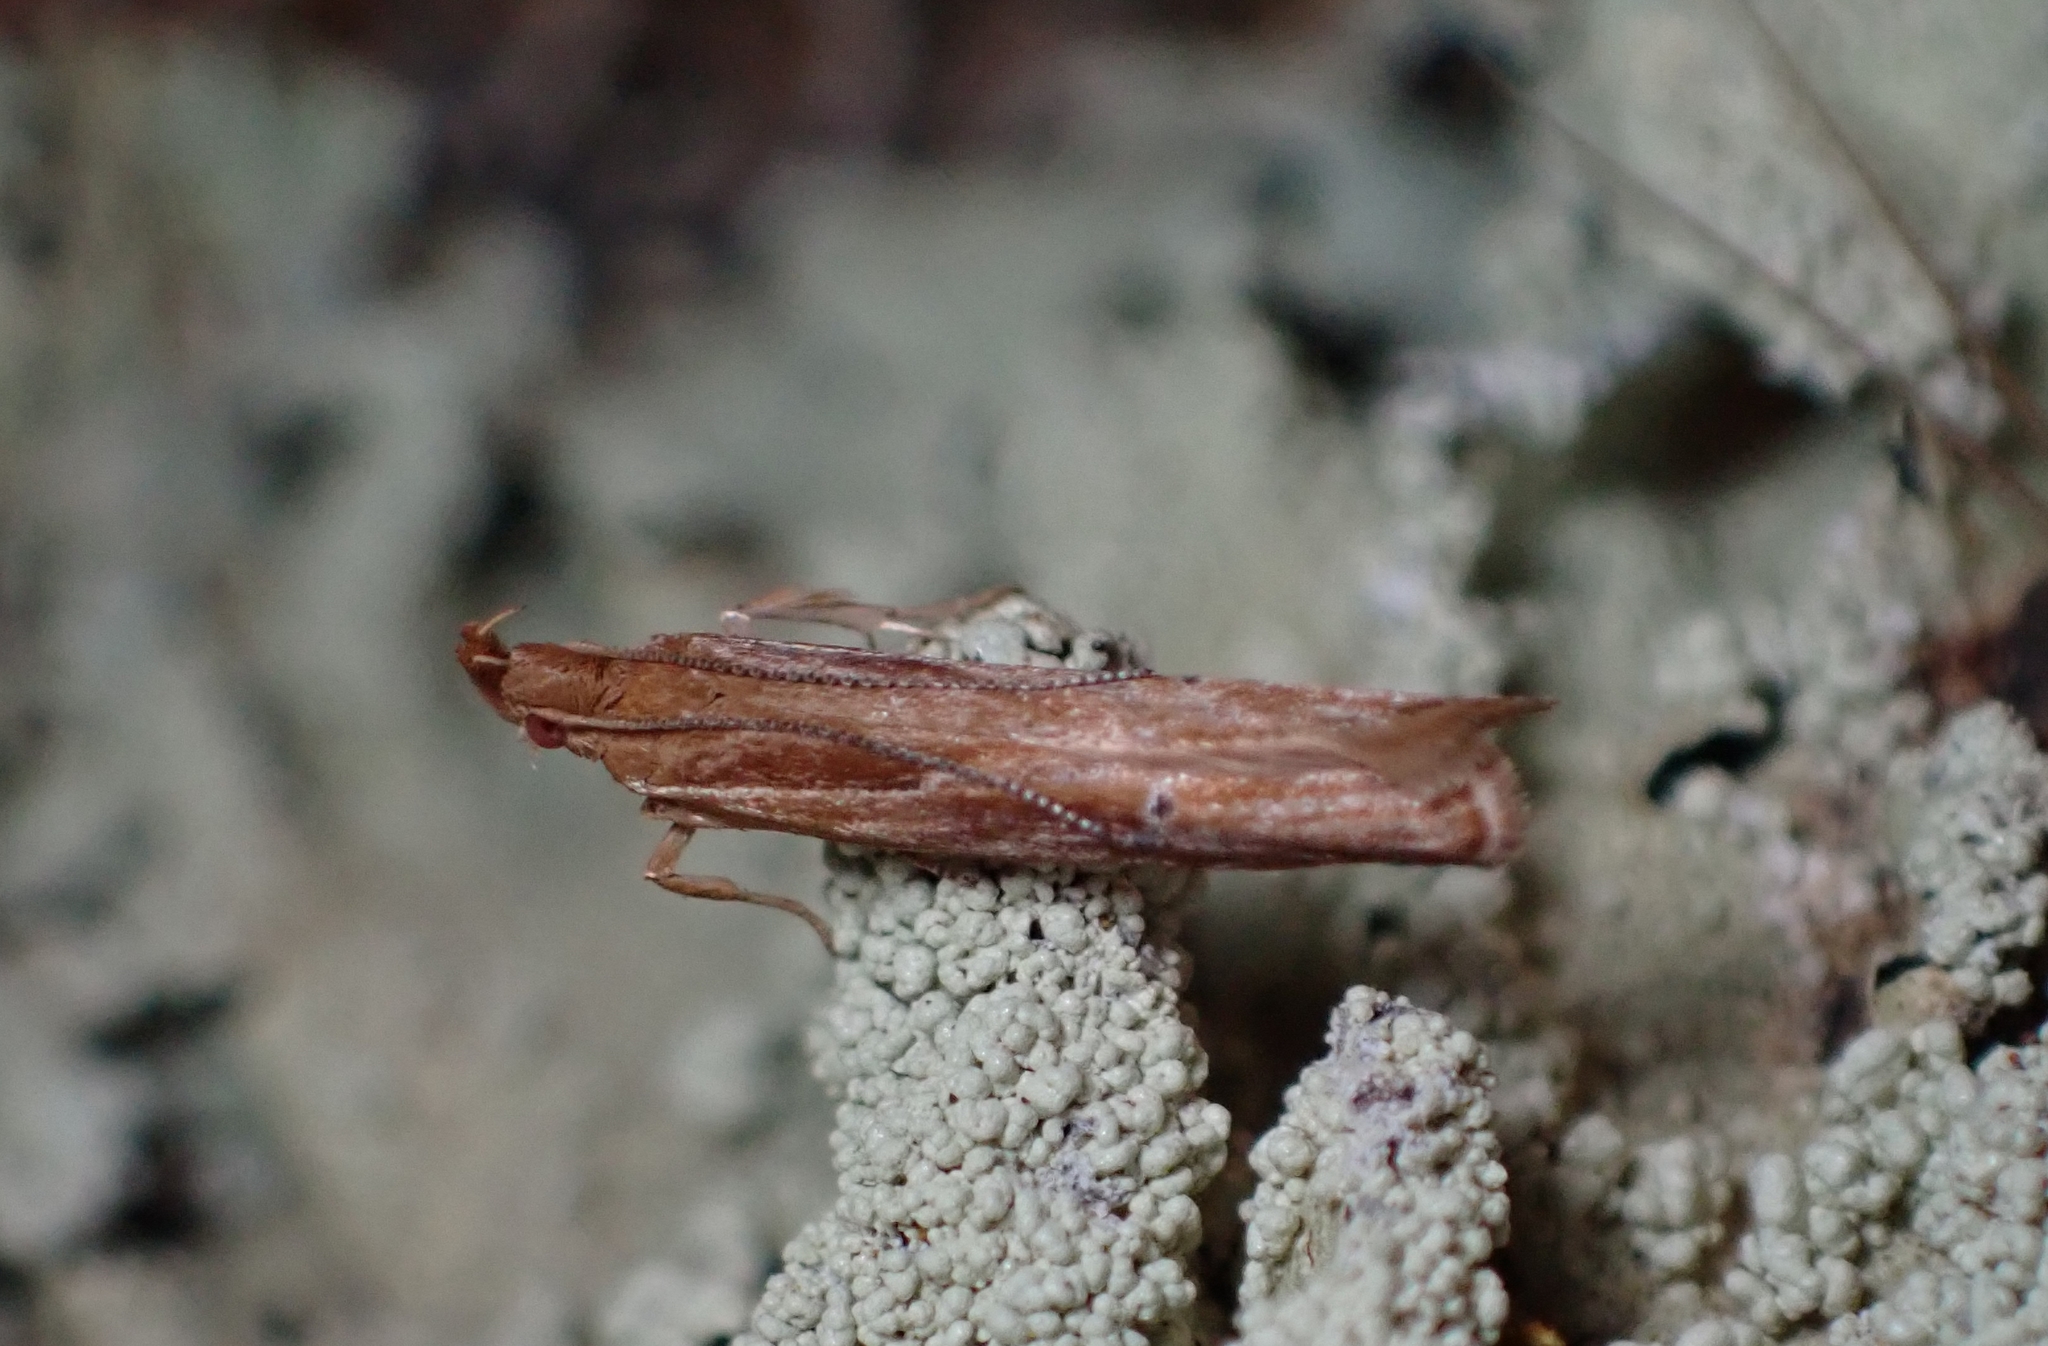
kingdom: Animalia
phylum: Arthropoda
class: Insecta
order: Lepidoptera
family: Depressariidae
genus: Eutorna
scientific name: Eutorna symmorpha
